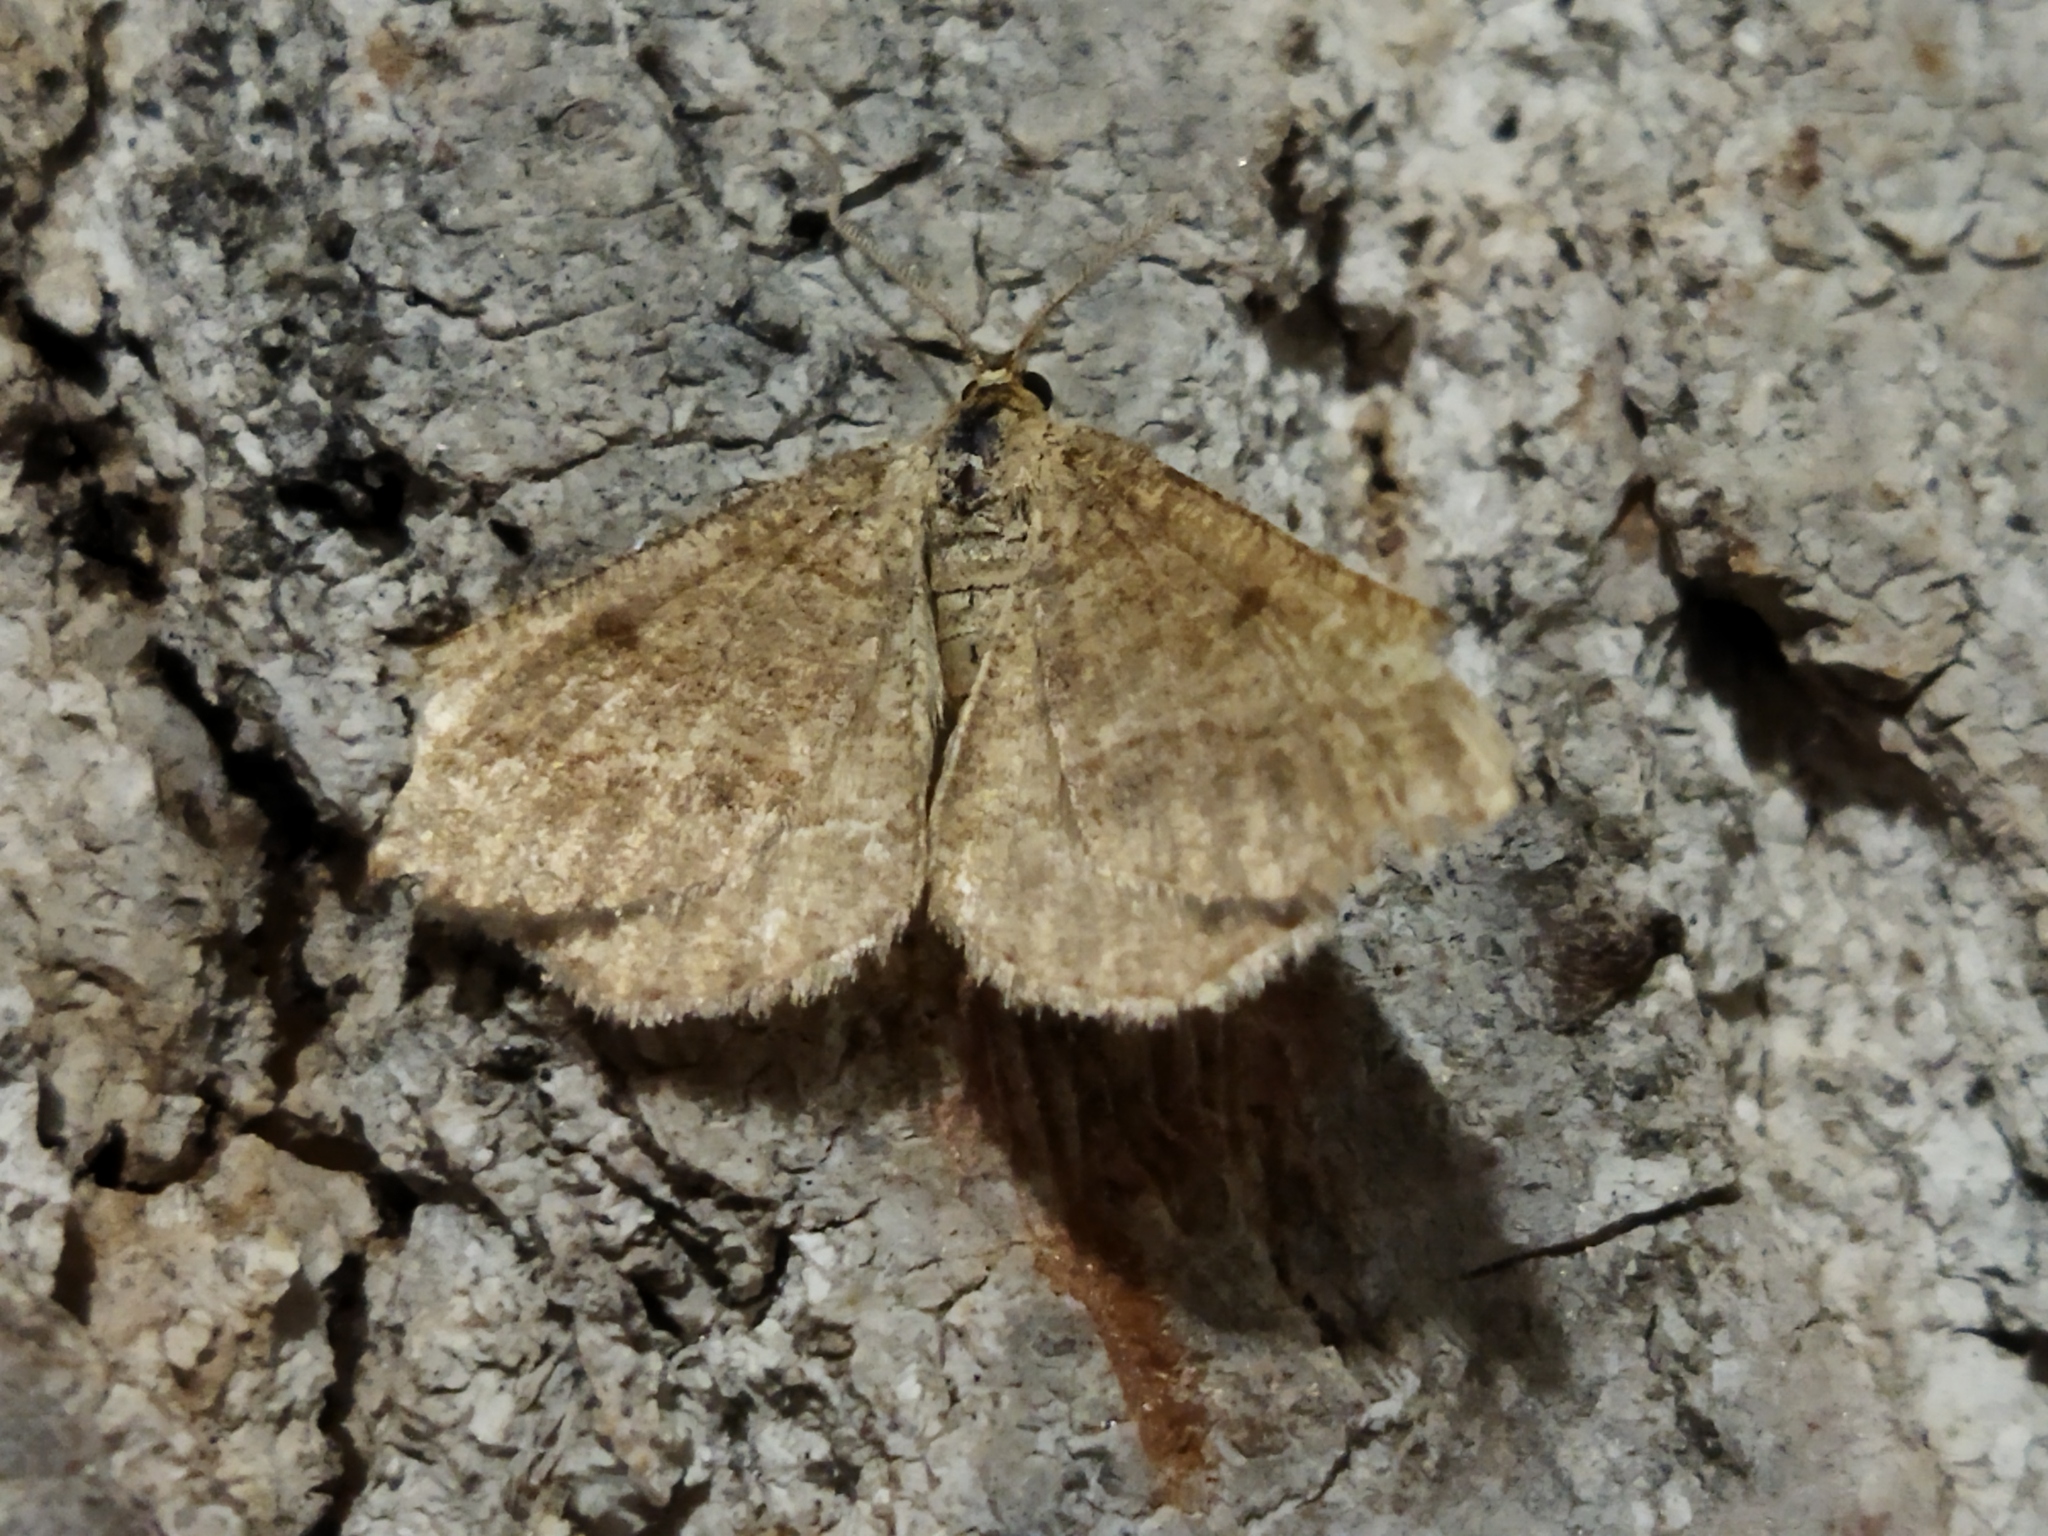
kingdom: Animalia
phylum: Arthropoda
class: Insecta
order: Lepidoptera
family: Geometridae
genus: Tephrina
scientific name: Tephrina murinaria
